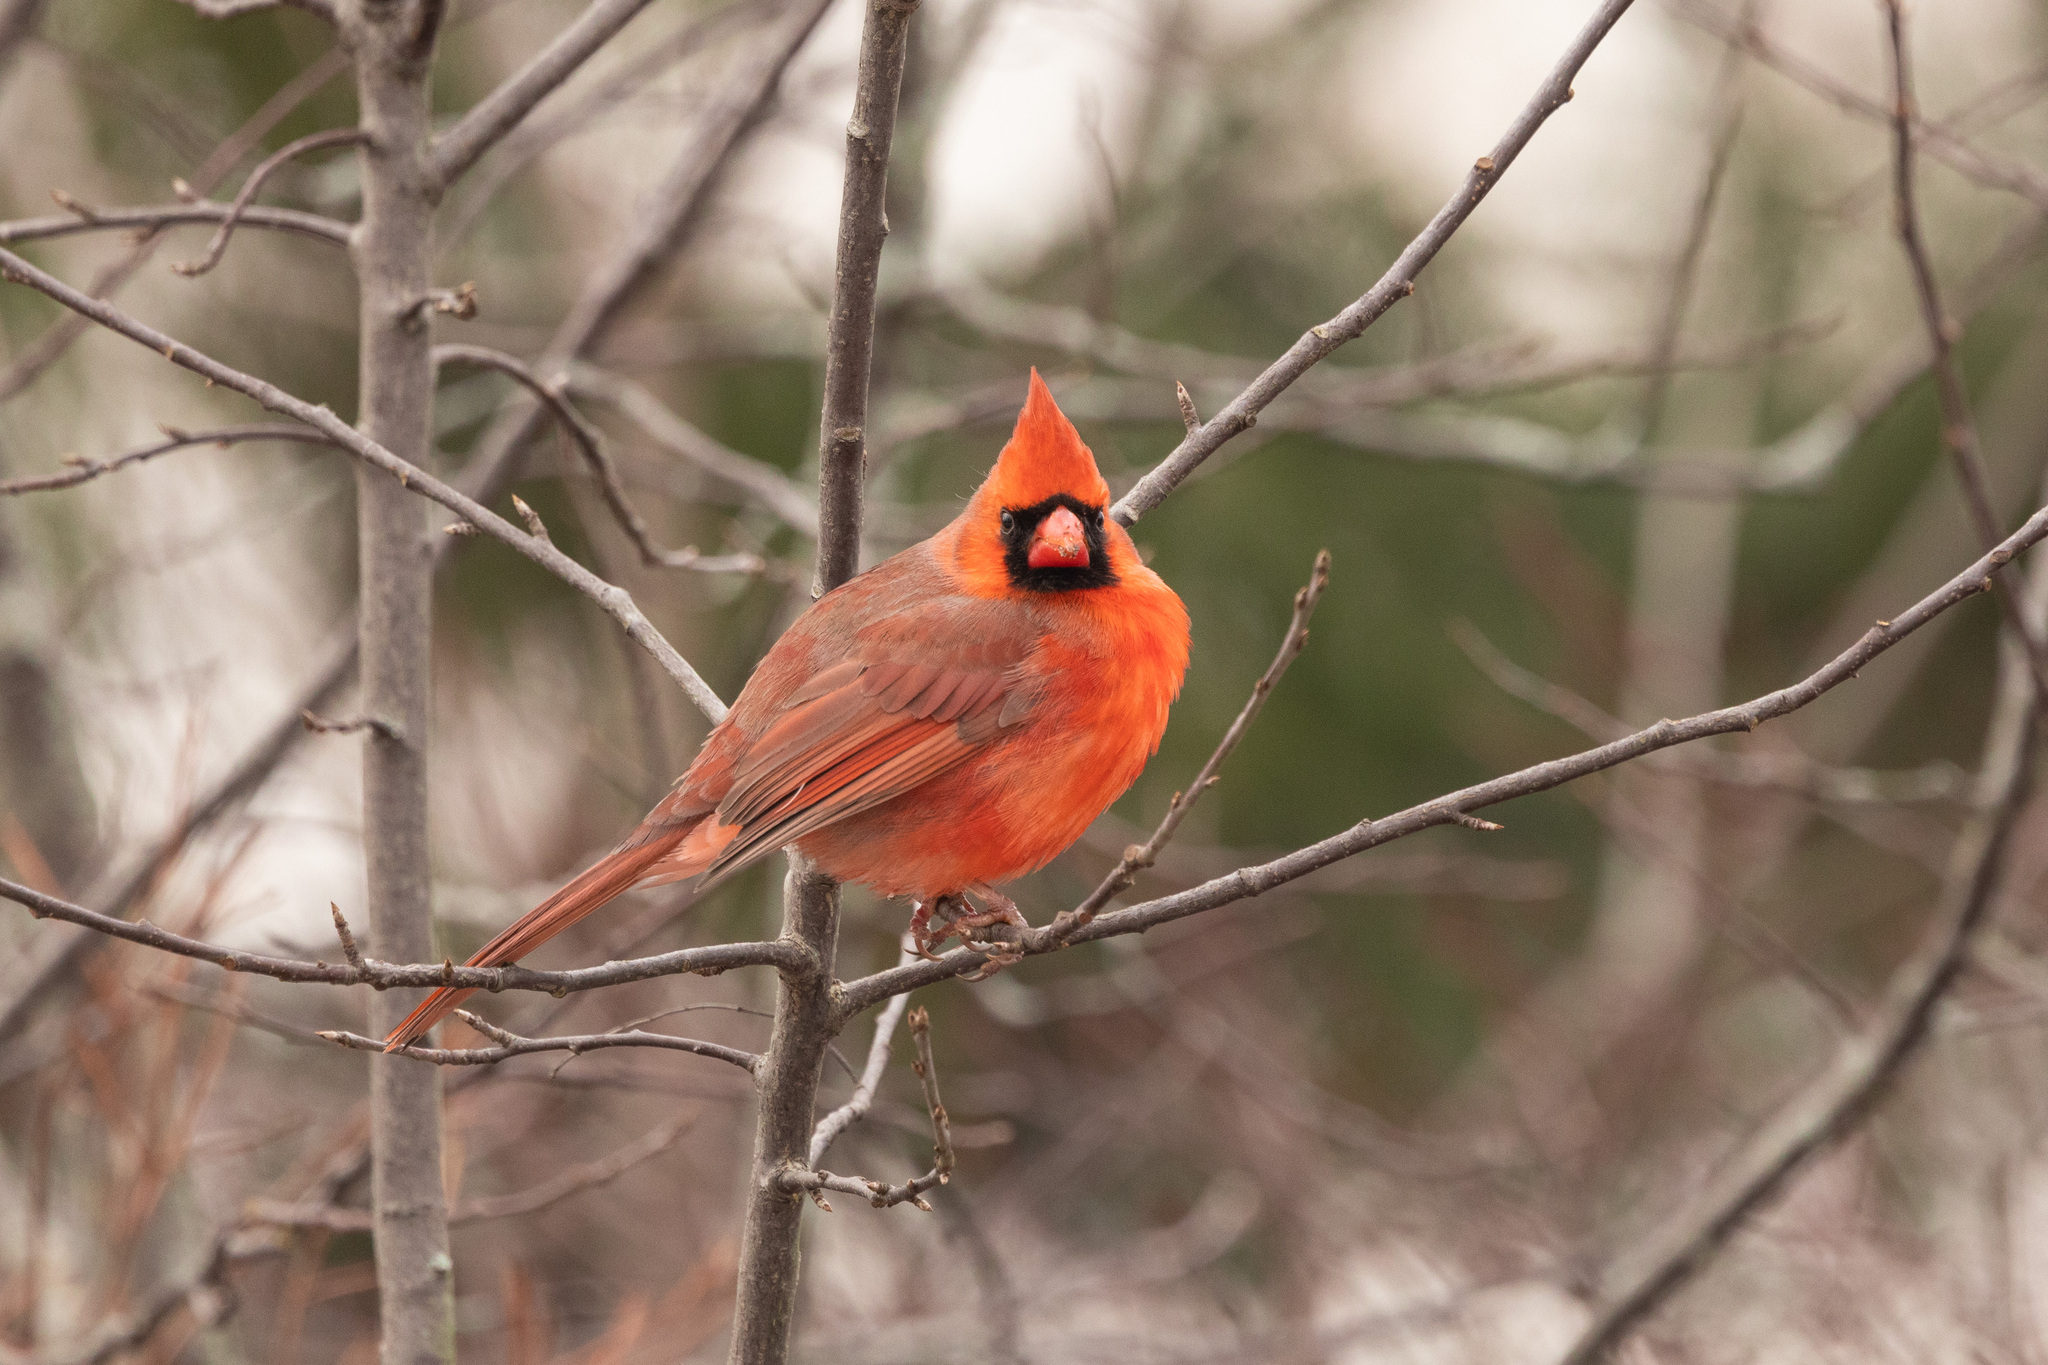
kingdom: Animalia
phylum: Chordata
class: Aves
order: Passeriformes
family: Cardinalidae
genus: Cardinalis
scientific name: Cardinalis cardinalis
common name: Northern cardinal
